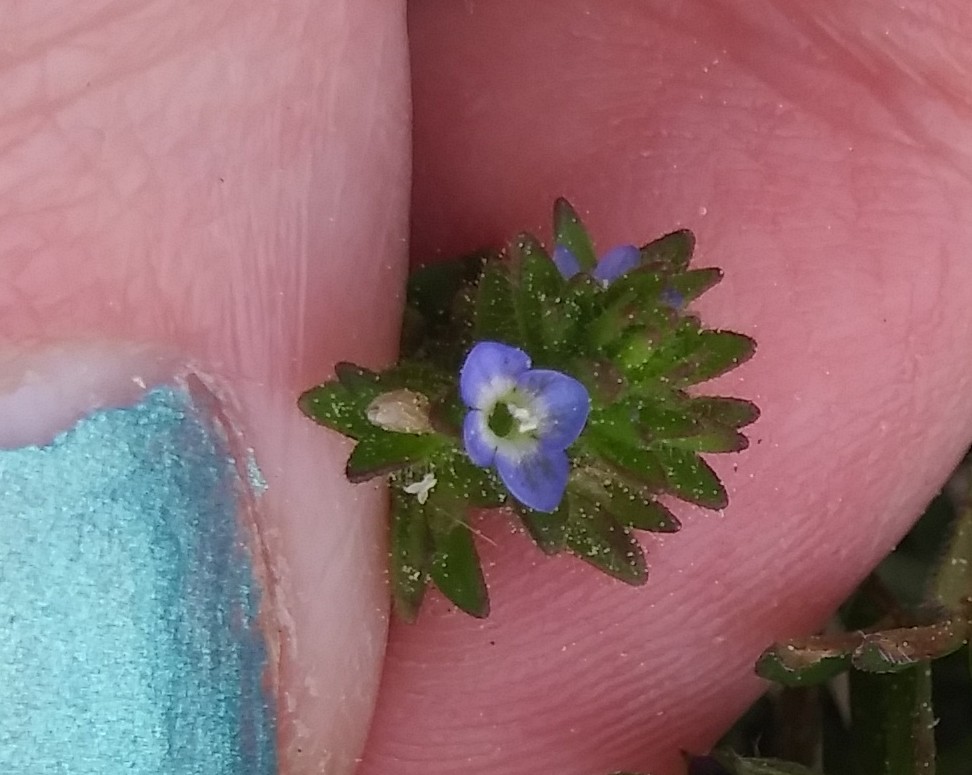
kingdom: Plantae
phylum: Tracheophyta
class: Magnoliopsida
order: Lamiales
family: Plantaginaceae
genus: Veronica
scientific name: Veronica arvensis
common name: Corn speedwell
